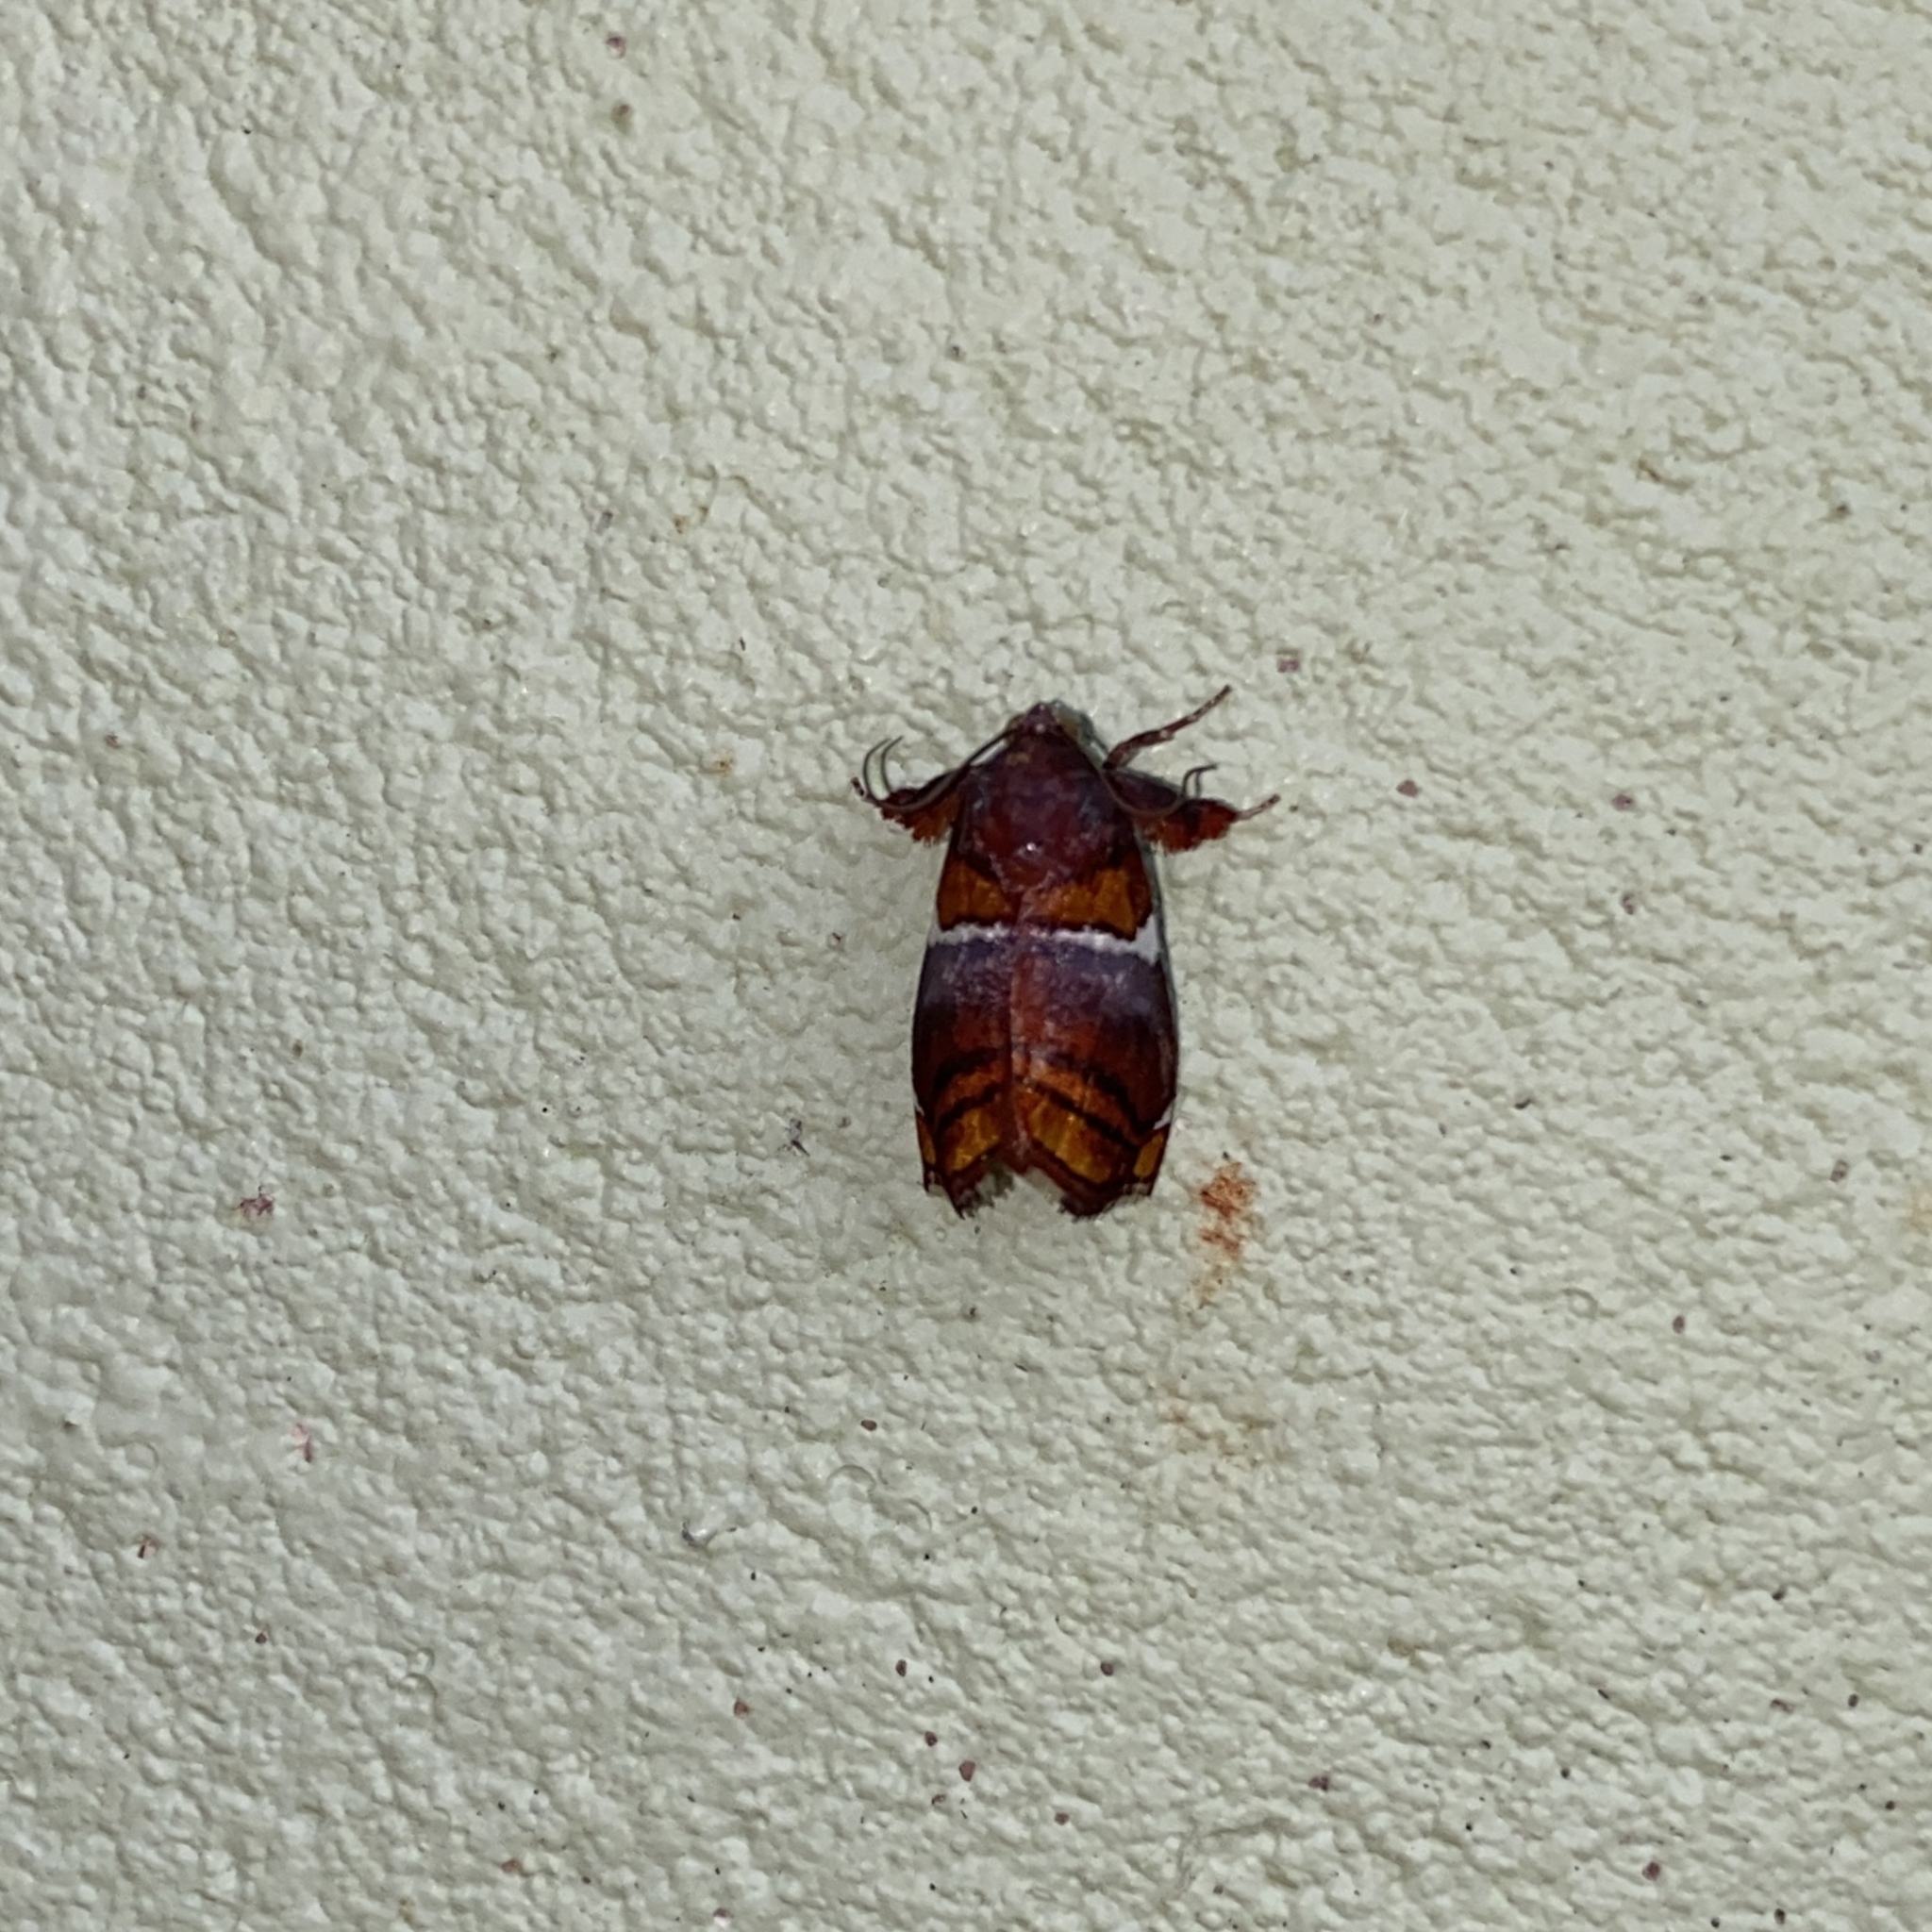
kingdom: Animalia
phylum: Arthropoda
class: Insecta
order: Lepidoptera
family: Pyralidae
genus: Hypocosmia
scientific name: Hypocosmia floralis
